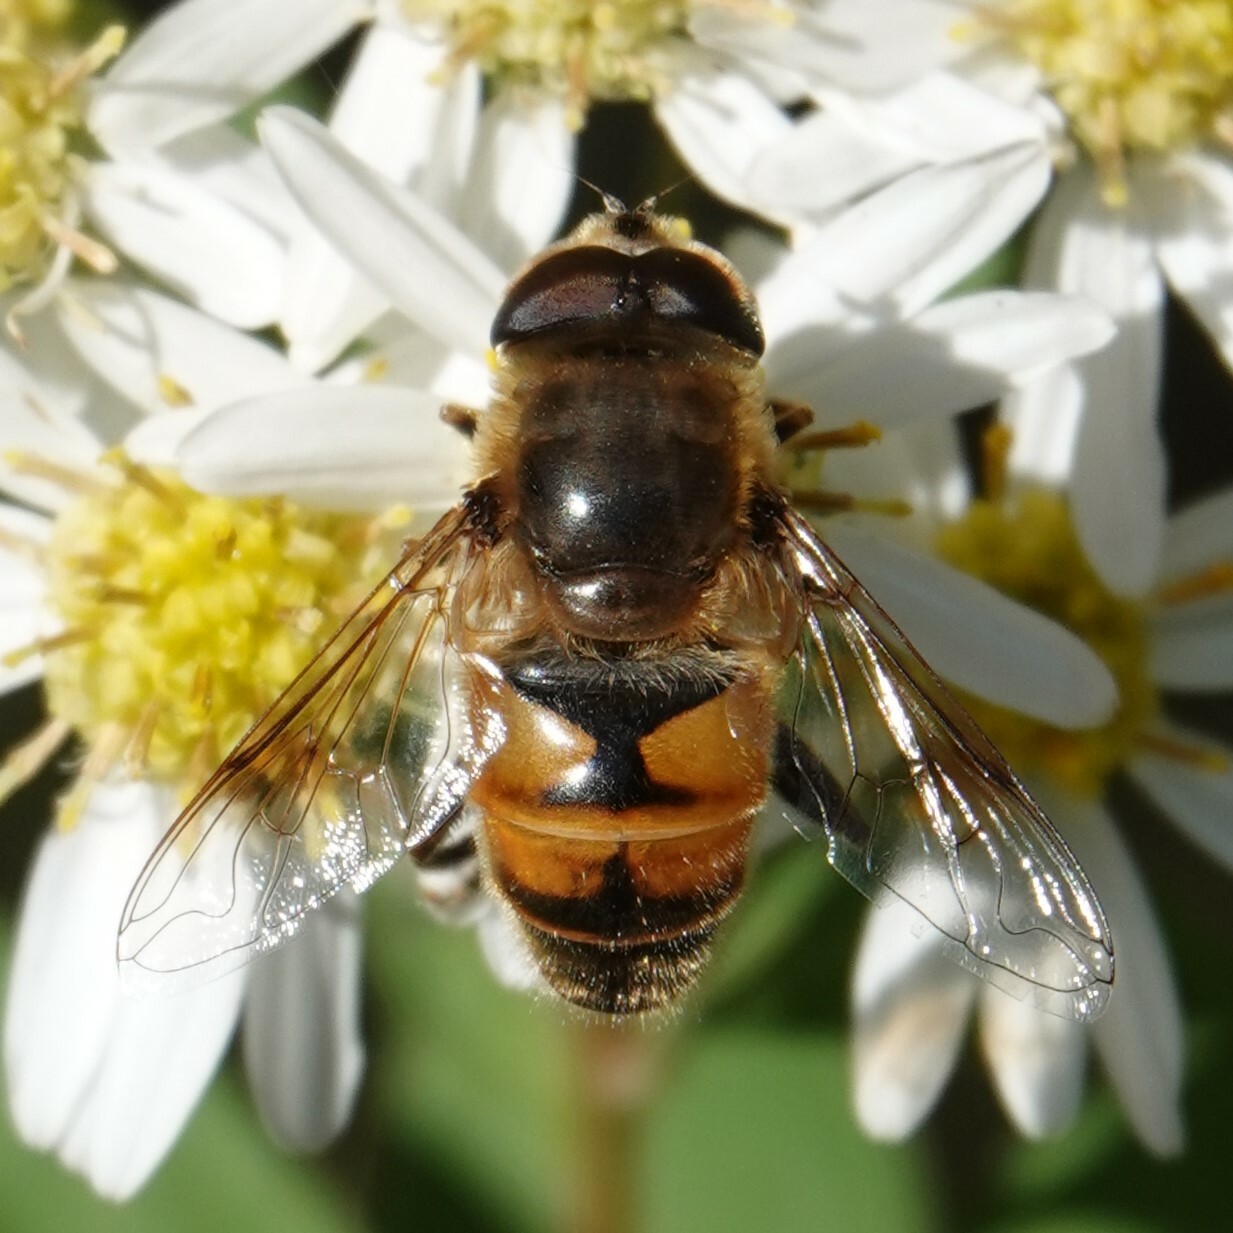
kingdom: Animalia
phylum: Arthropoda
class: Insecta
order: Diptera
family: Syrphidae
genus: Eristalis
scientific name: Eristalis tenax
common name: Drone fly
